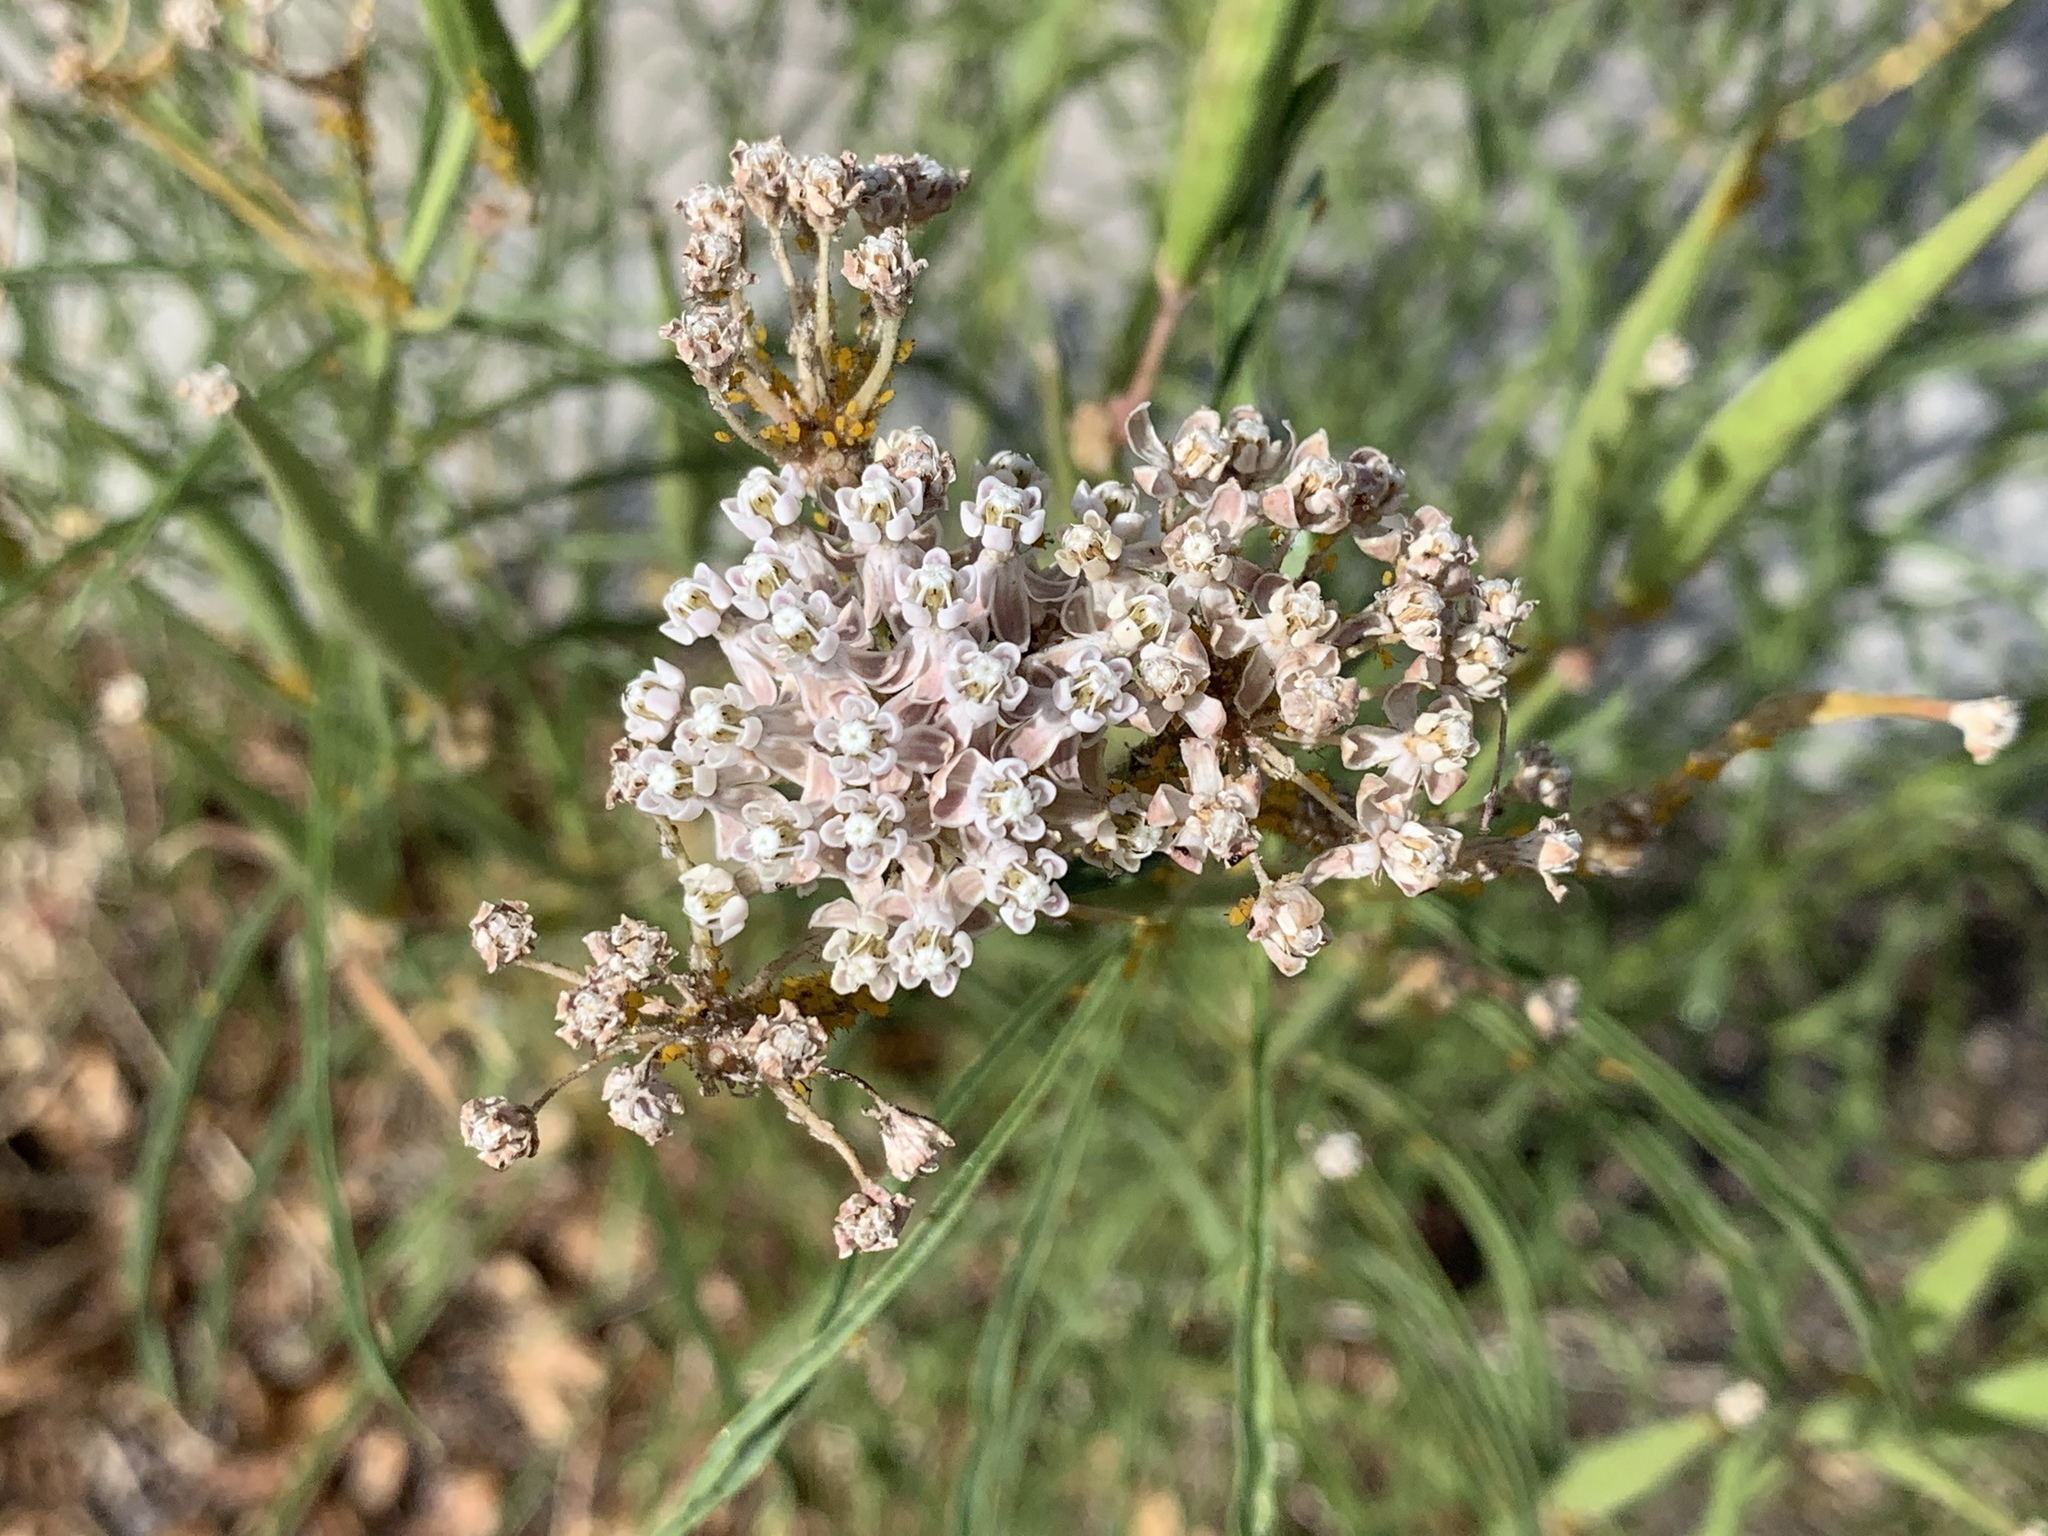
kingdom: Plantae
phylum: Tracheophyta
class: Magnoliopsida
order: Gentianales
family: Apocynaceae
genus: Asclepias
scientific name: Asclepias fascicularis
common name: Mexican milkweed
